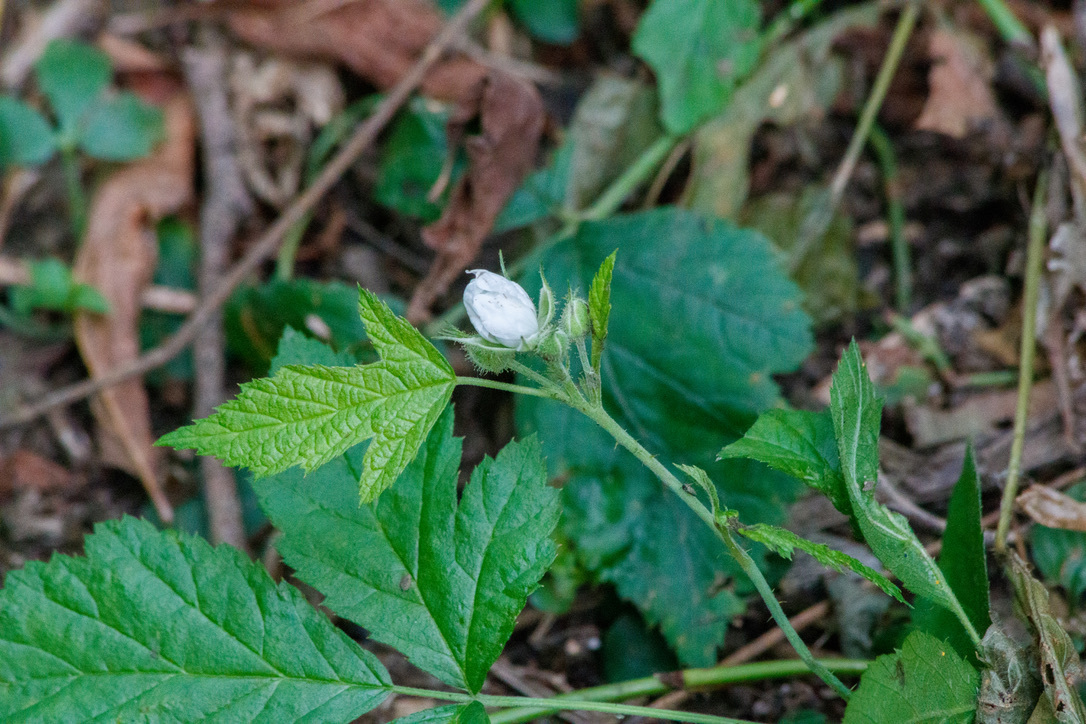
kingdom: Plantae
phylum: Tracheophyta
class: Magnoliopsida
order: Rosales
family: Rosaceae
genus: Rubus
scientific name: Rubus caesius
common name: Dewberry
